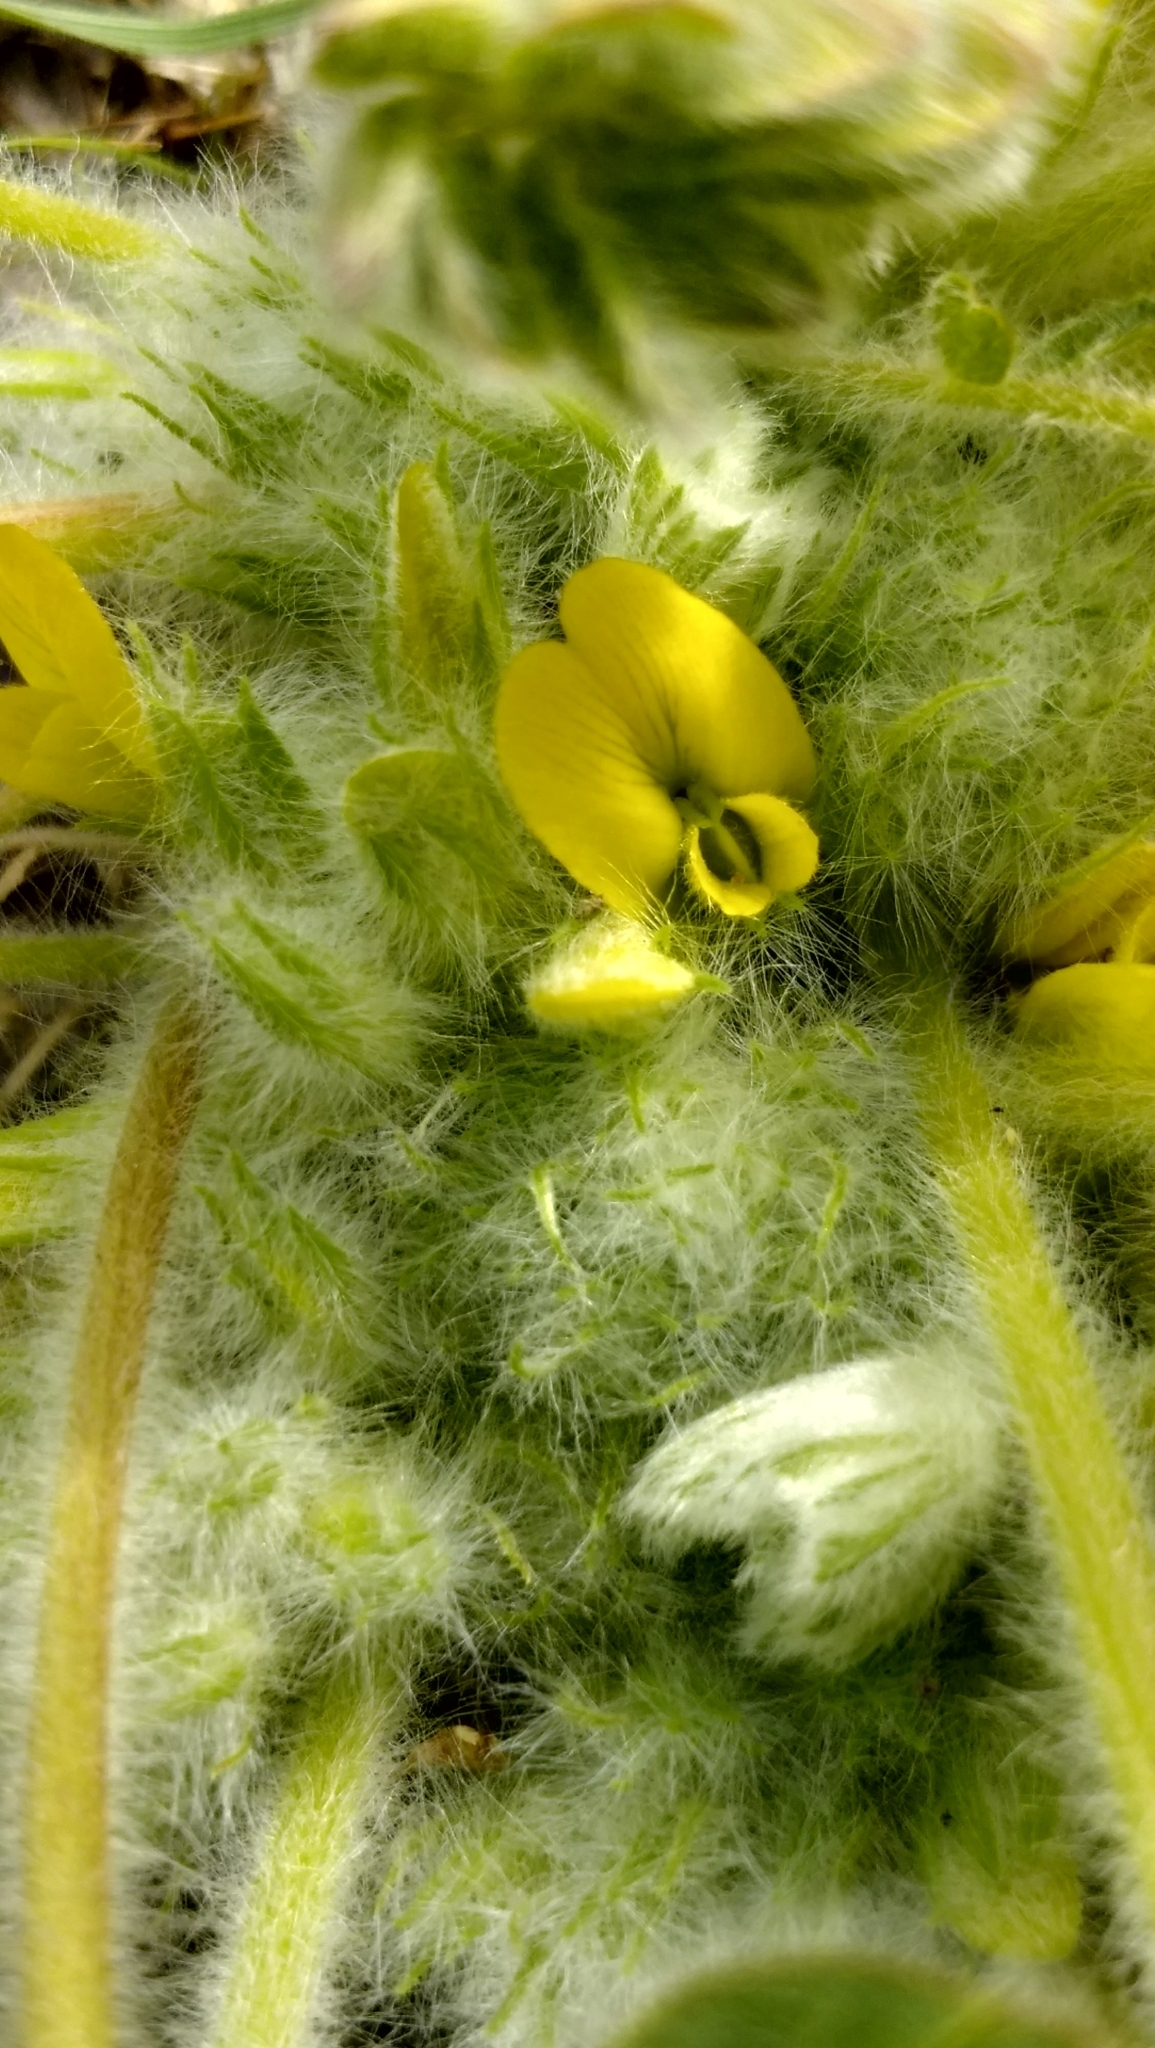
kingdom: Plantae
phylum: Tracheophyta
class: Magnoliopsida
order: Fabales
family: Fabaceae
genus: Astragalus
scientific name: Astragalus exscapus
